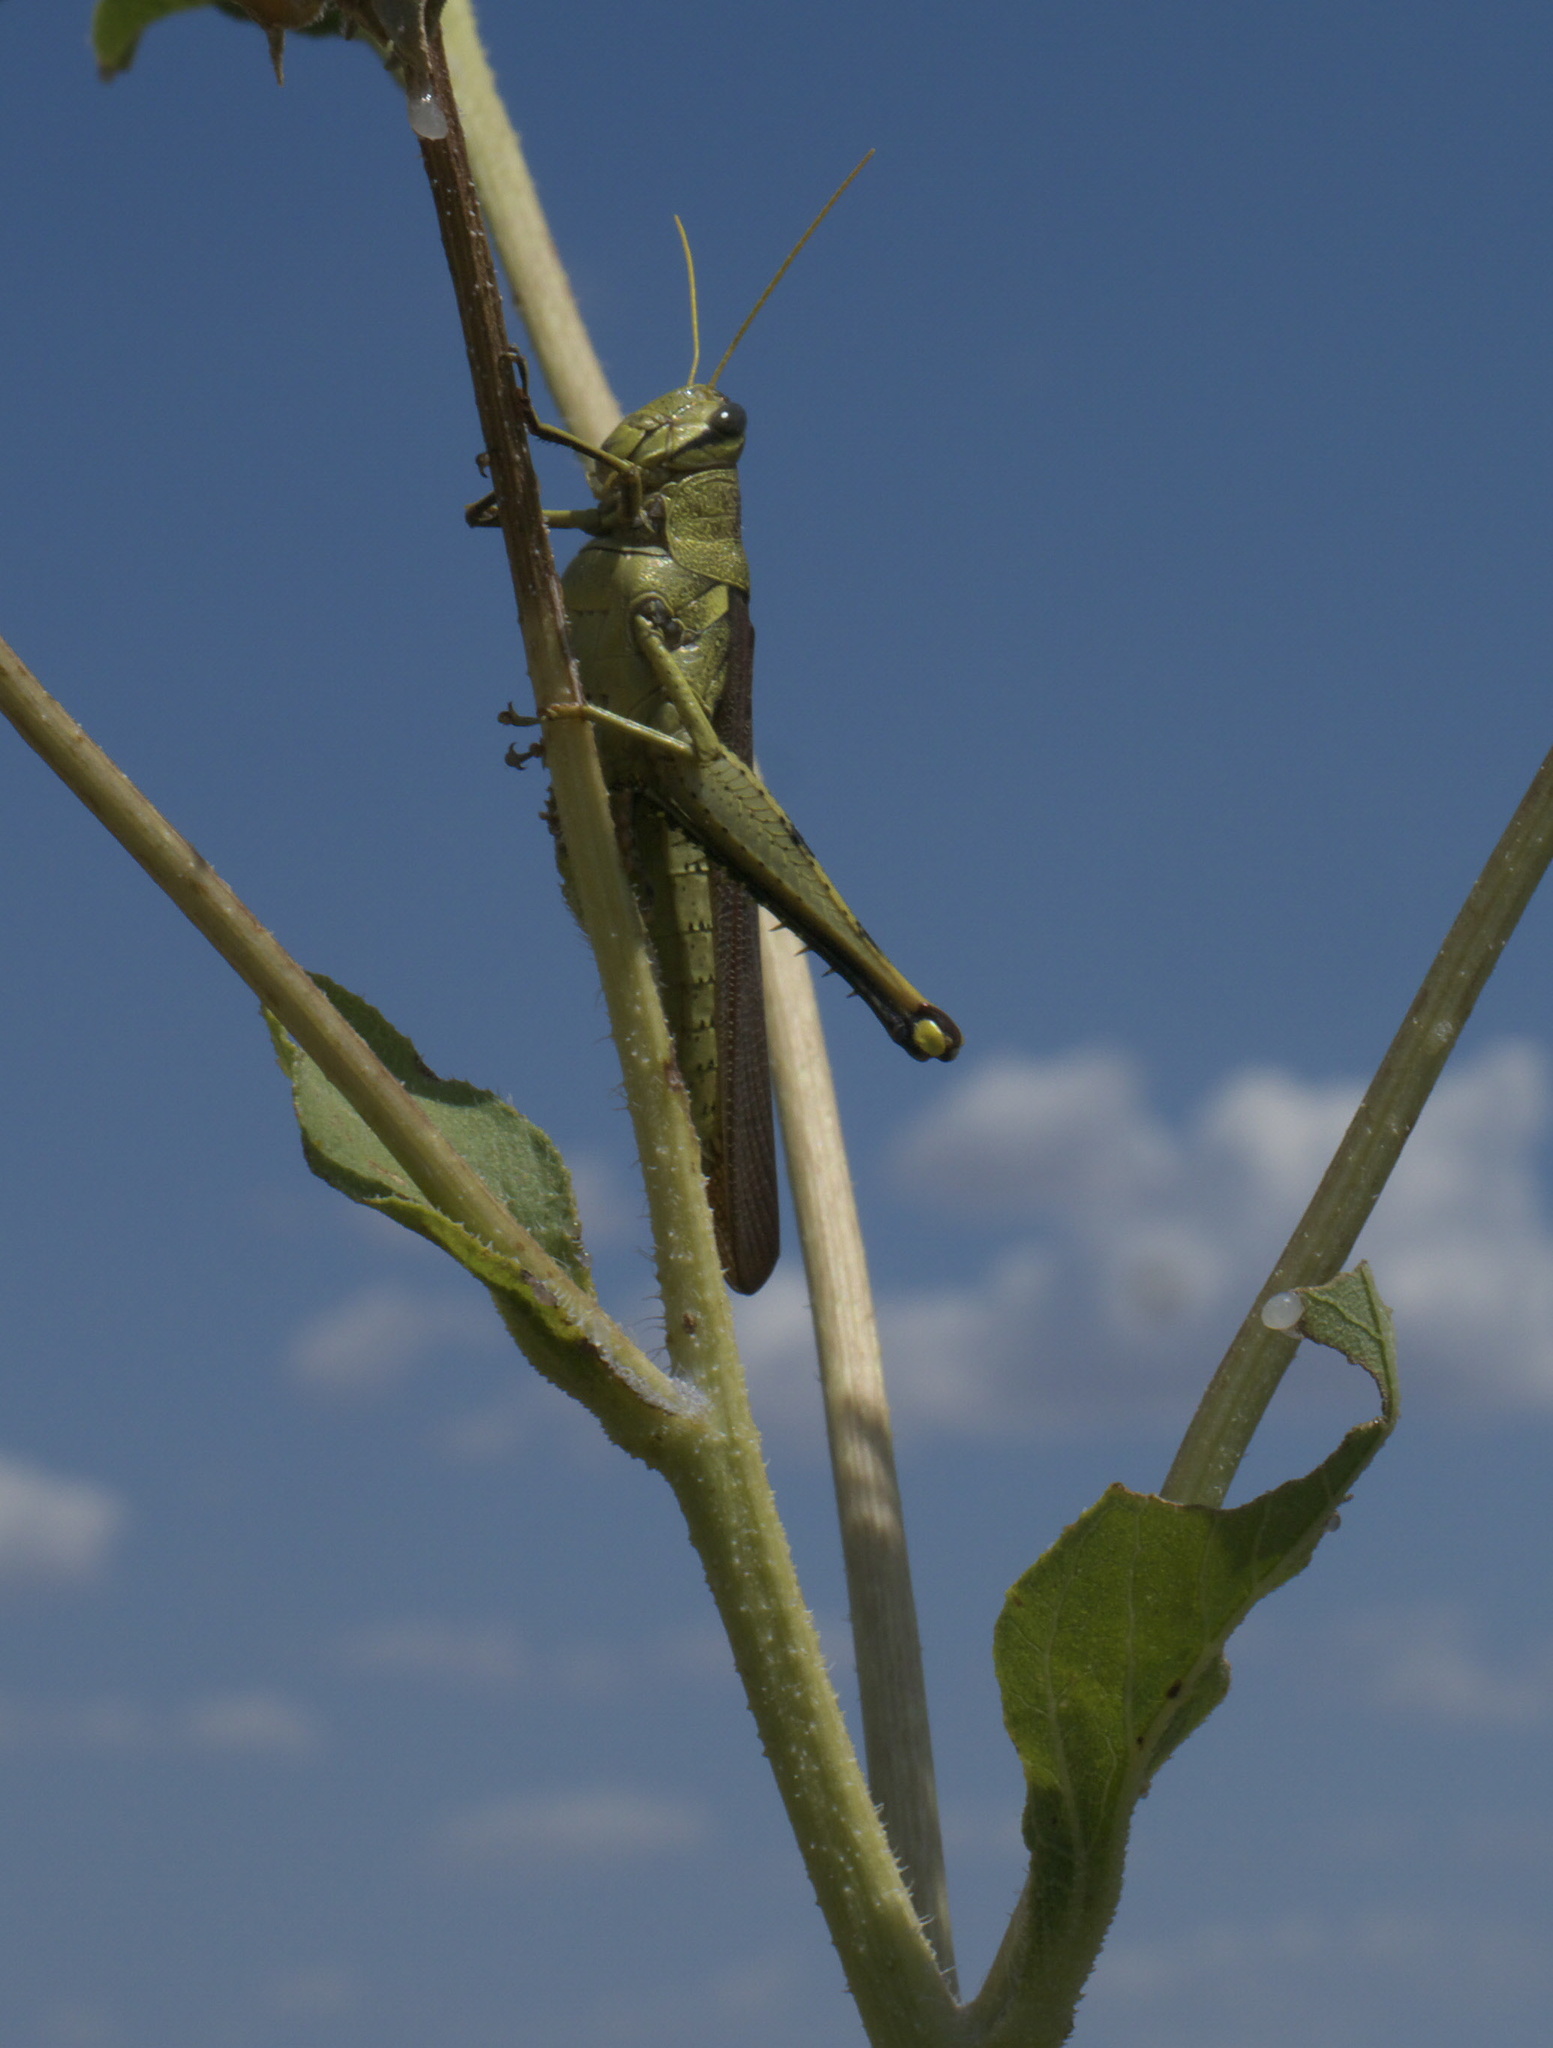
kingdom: Animalia
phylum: Arthropoda
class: Insecta
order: Orthoptera
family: Acrididae
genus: Schistocerca
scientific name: Schistocerca obscura
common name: Obscure bird grasshopper
